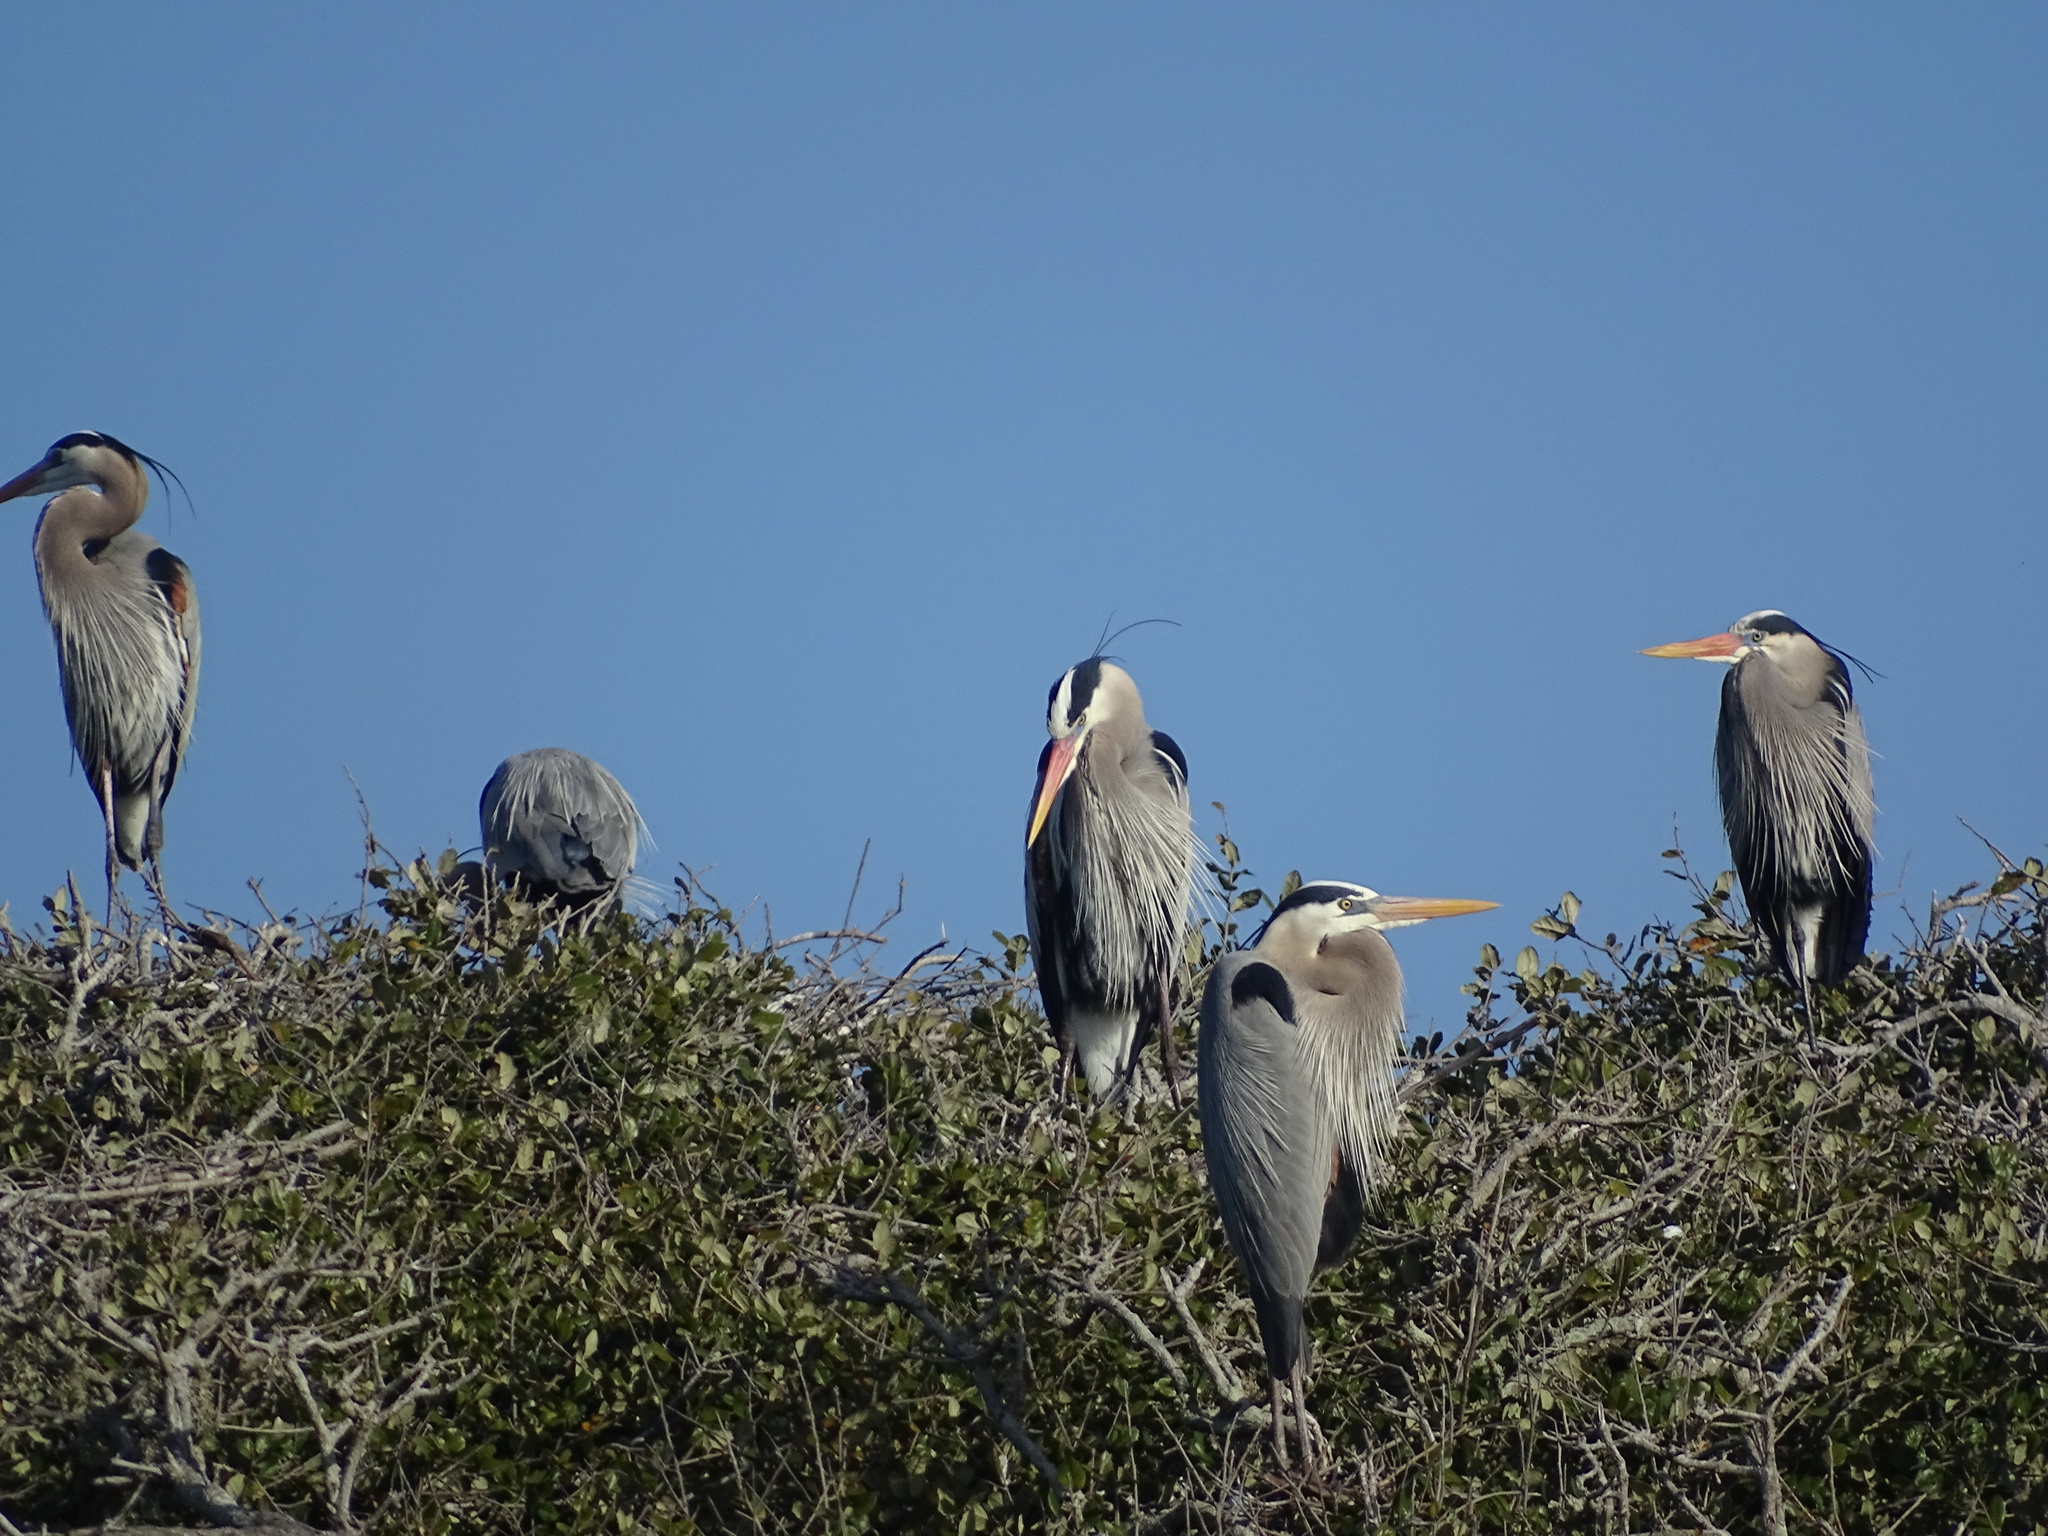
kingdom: Animalia
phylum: Chordata
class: Aves
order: Pelecaniformes
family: Ardeidae
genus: Ardea
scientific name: Ardea herodias
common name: Great blue heron
